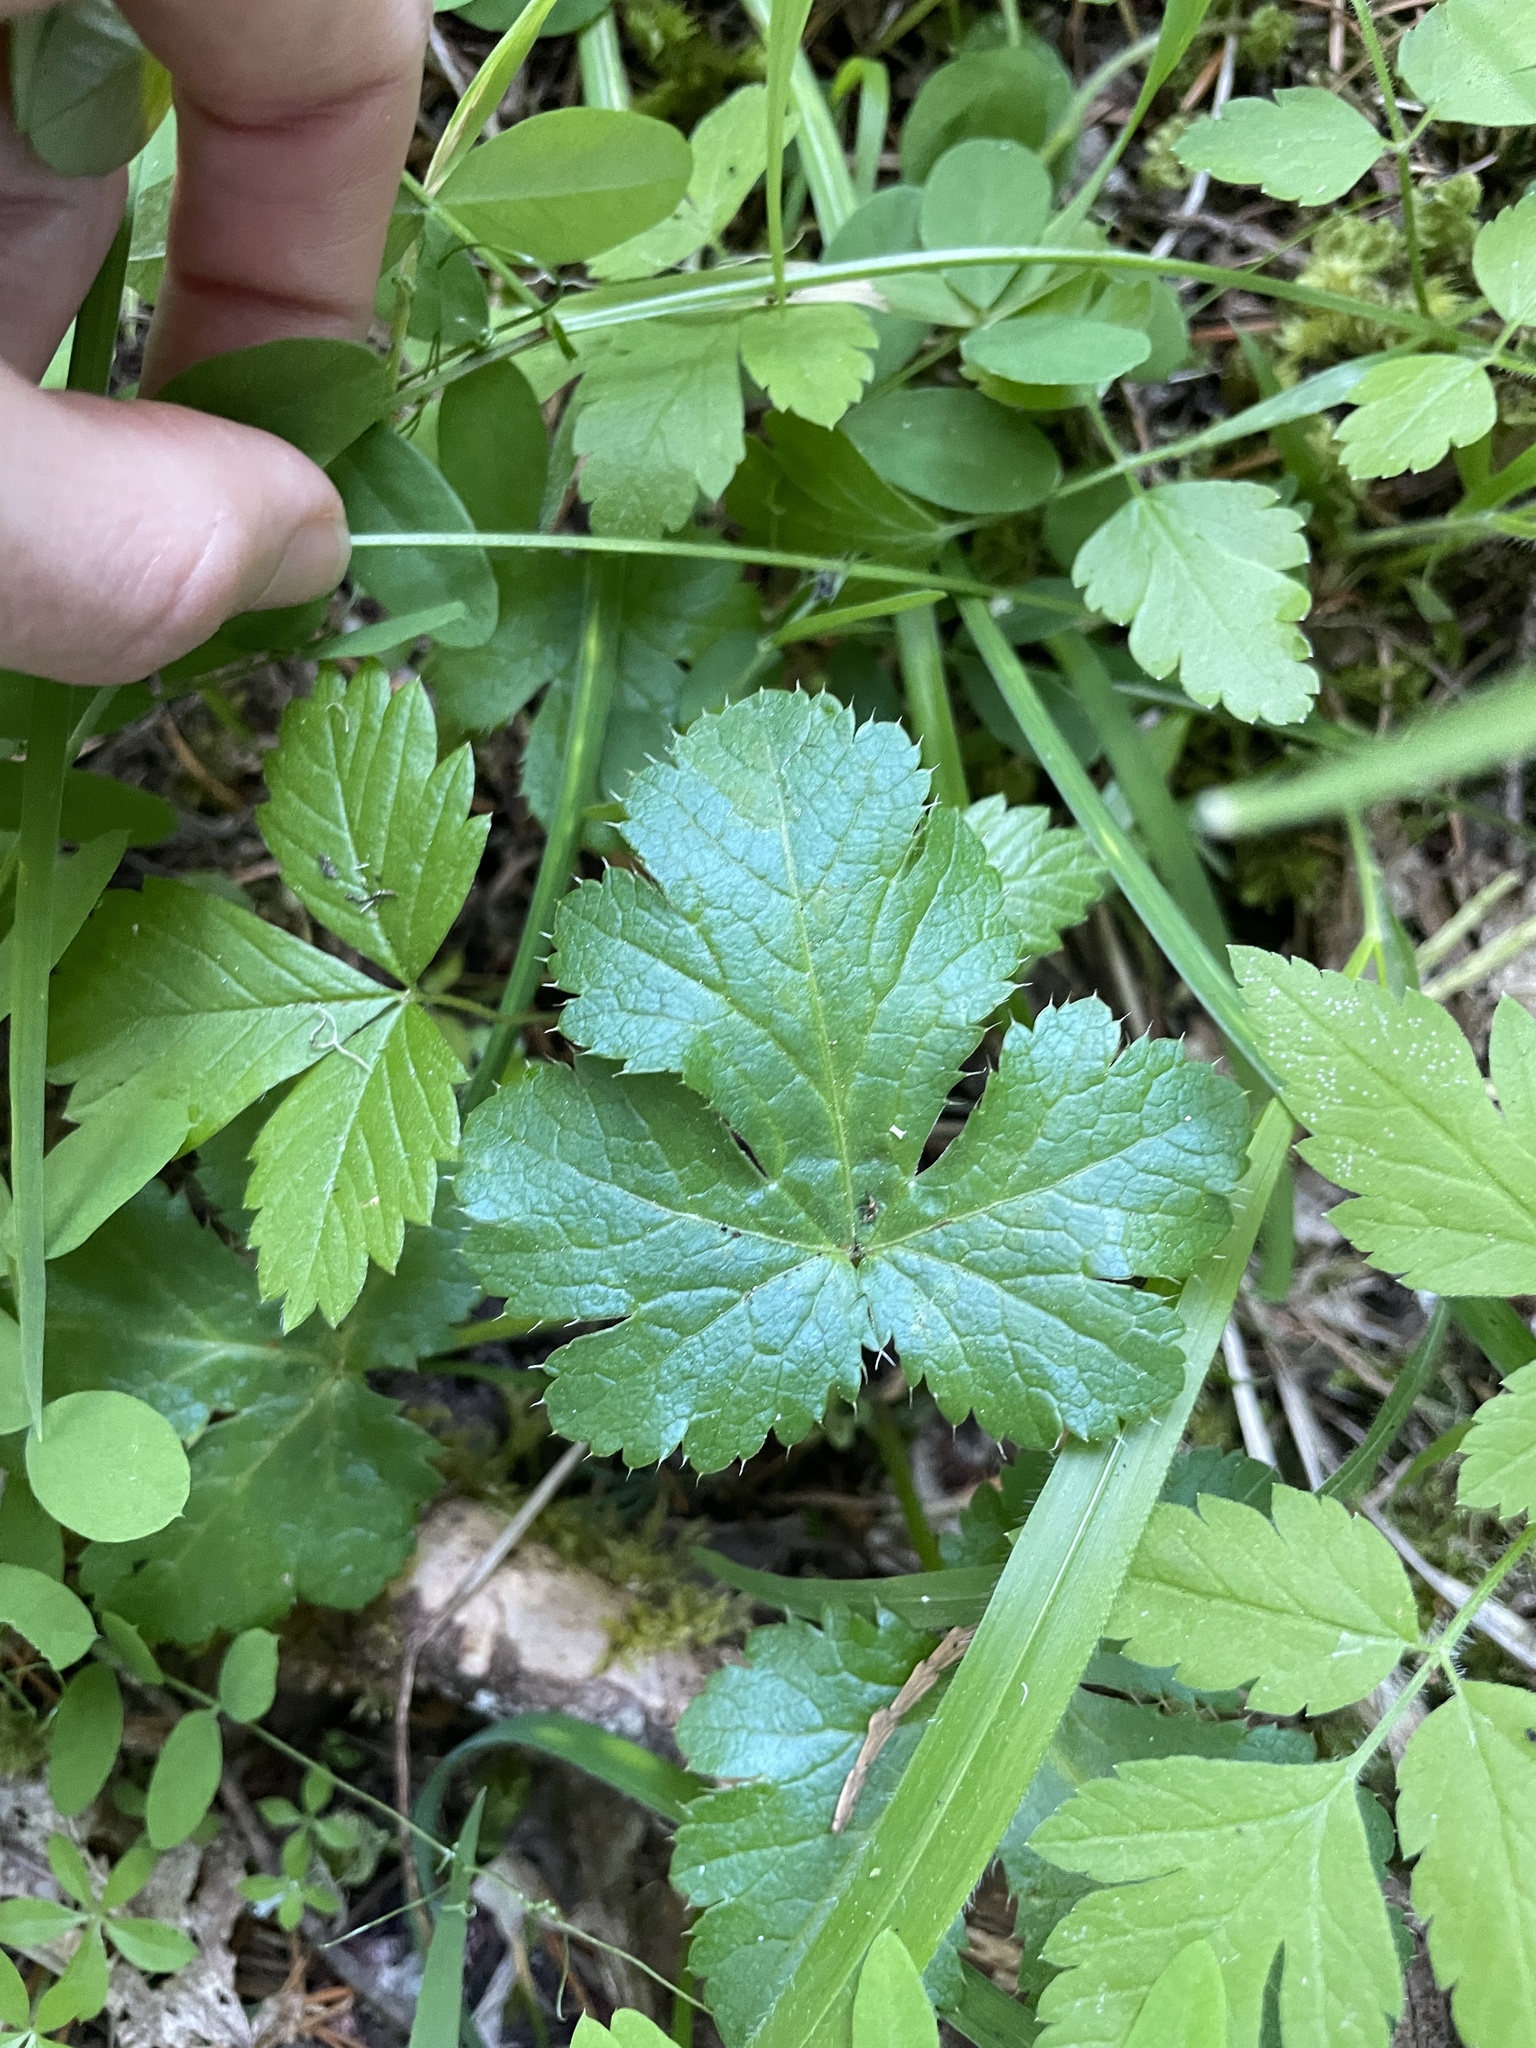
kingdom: Plantae
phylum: Tracheophyta
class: Magnoliopsida
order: Apiales
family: Apiaceae
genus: Sanicula
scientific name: Sanicula crassicaulis
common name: Western snakeroot
